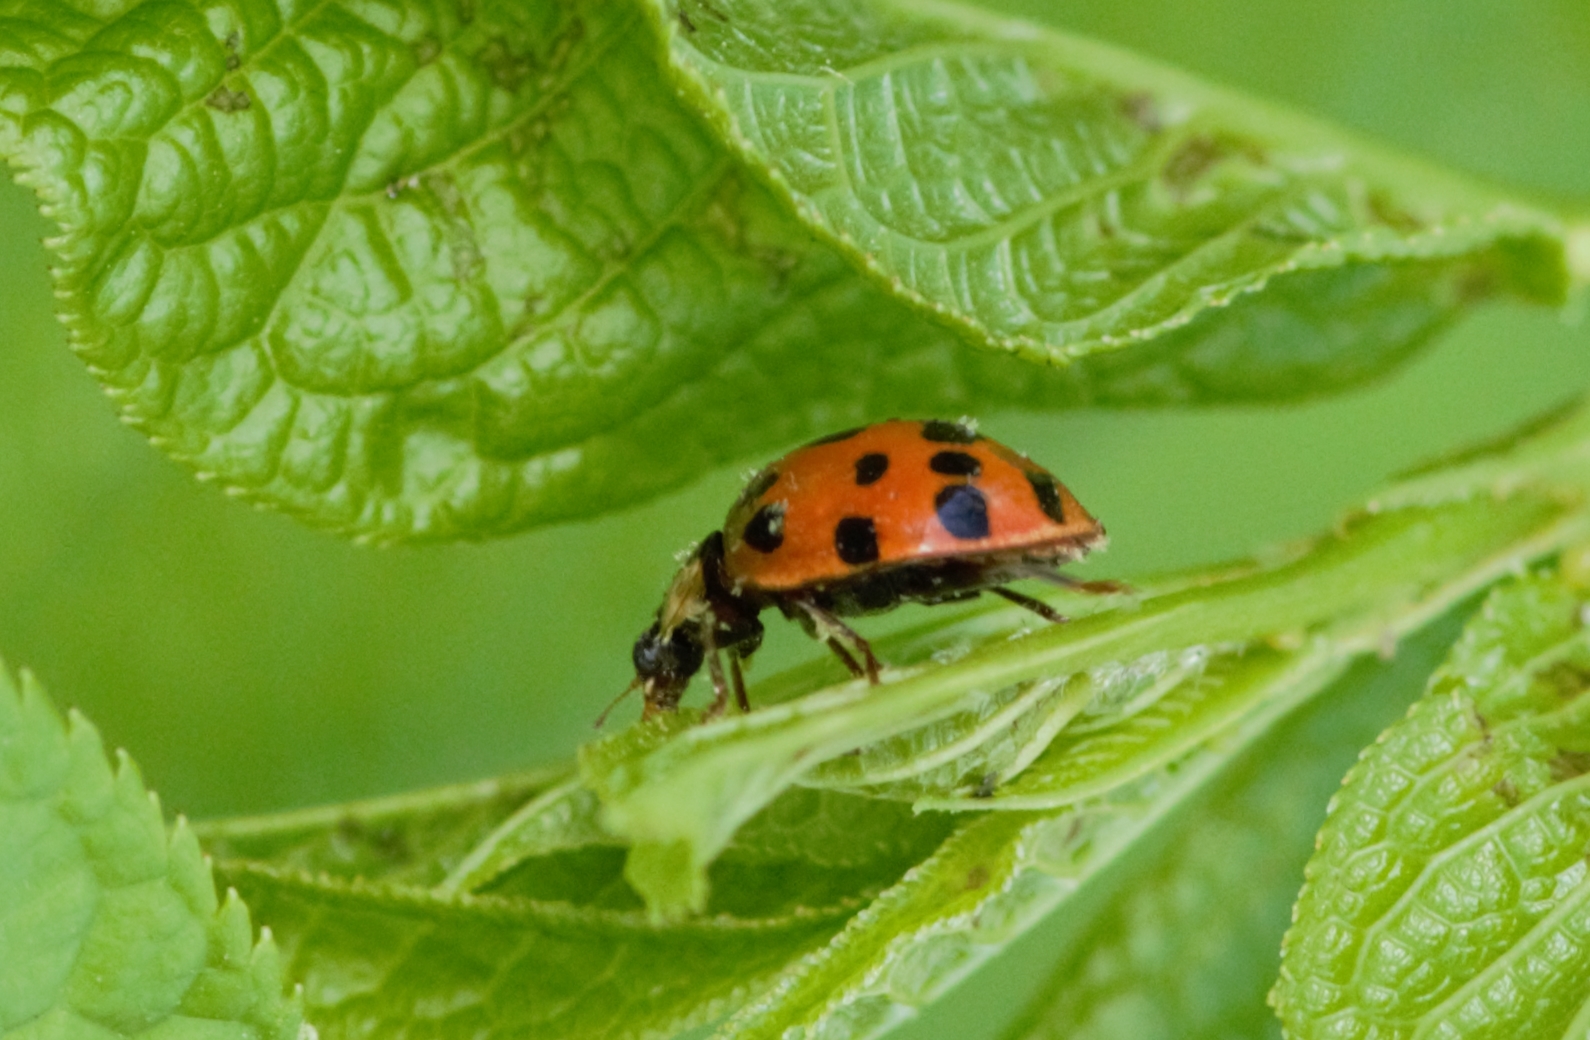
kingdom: Animalia
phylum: Arthropoda
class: Insecta
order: Coleoptera
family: Coccinellidae
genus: Harmonia
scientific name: Harmonia axyridis
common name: Harlequin ladybird
